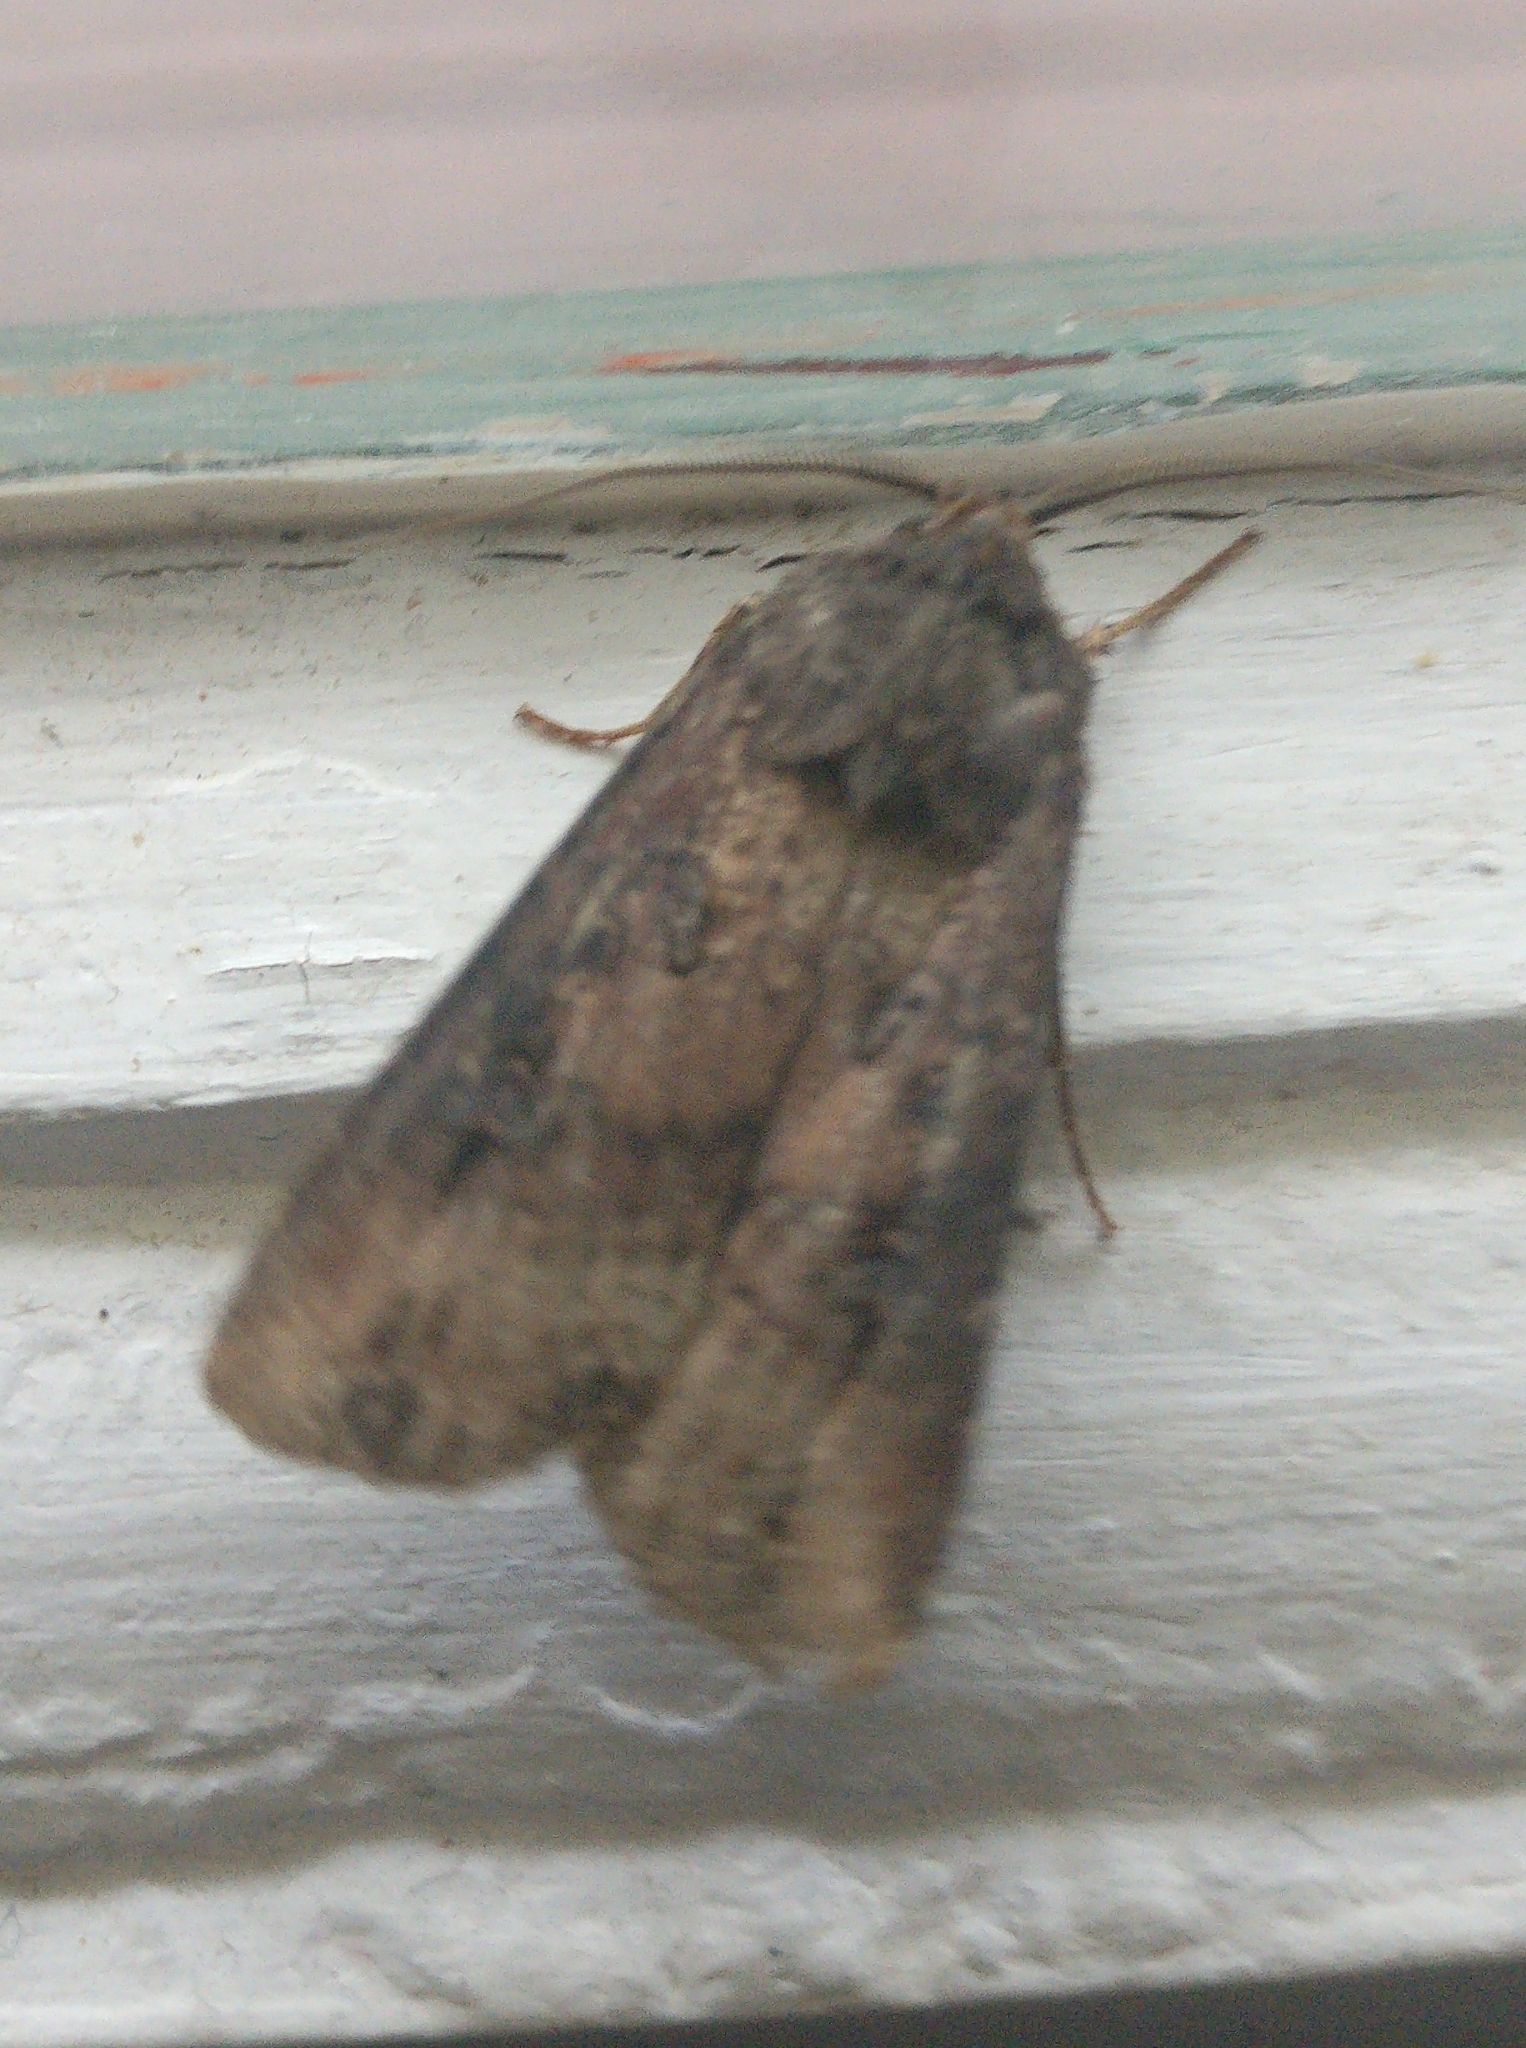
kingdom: Animalia
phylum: Arthropoda
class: Insecta
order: Lepidoptera
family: Noctuidae
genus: Agrotis
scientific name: Agrotis ipsilon
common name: Dark sword-grass
